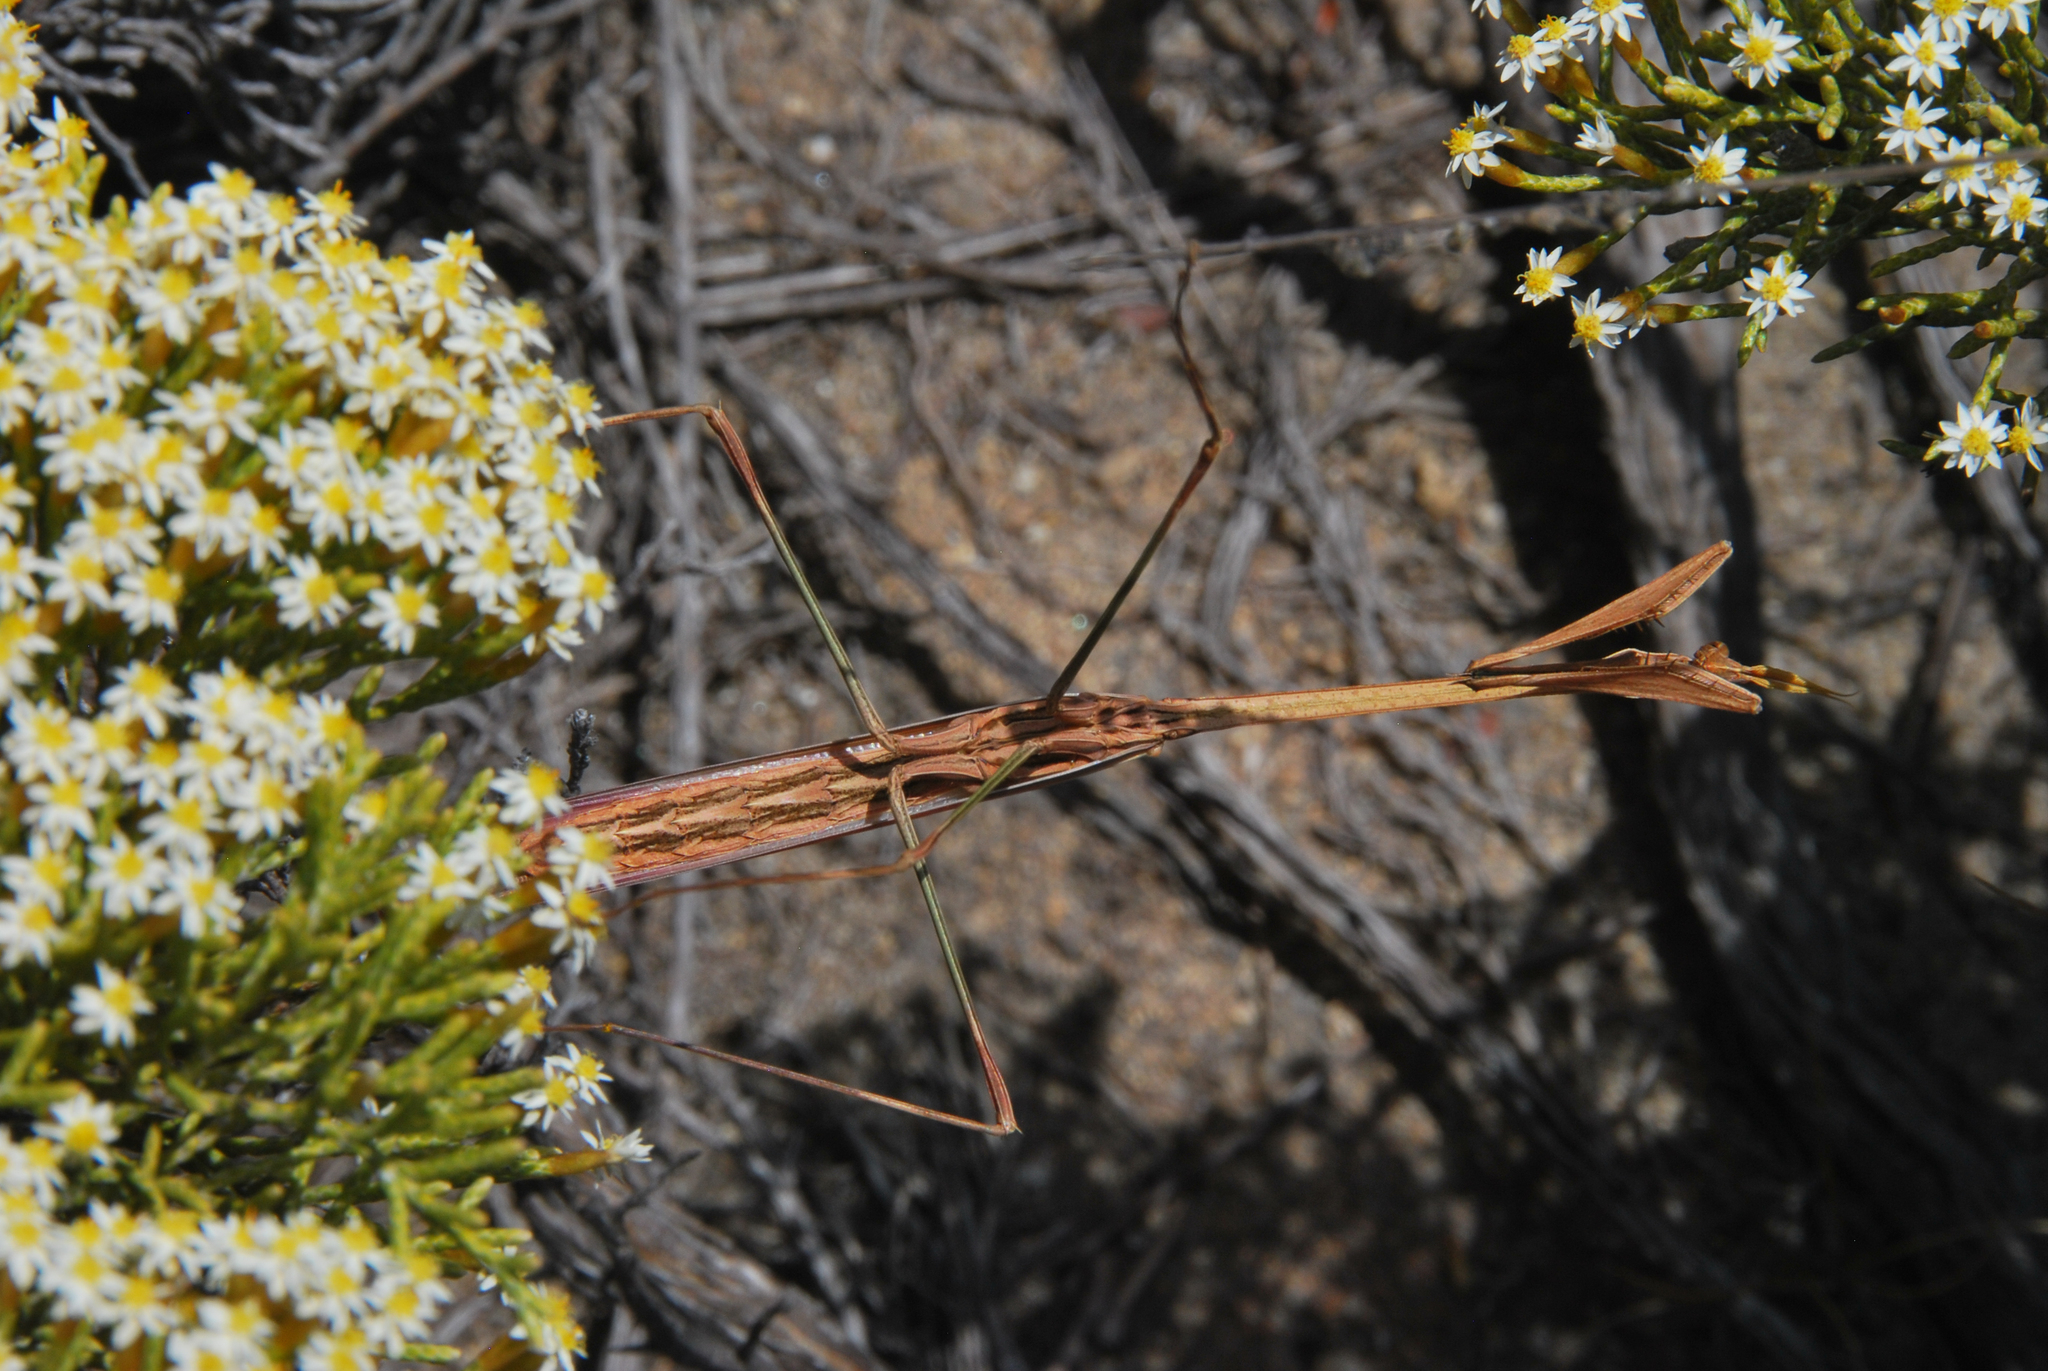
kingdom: Animalia
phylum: Arthropoda
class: Insecta
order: Mantodea
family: Empusidae
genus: Idolomorpha
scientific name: Idolomorpha madagascariensis
